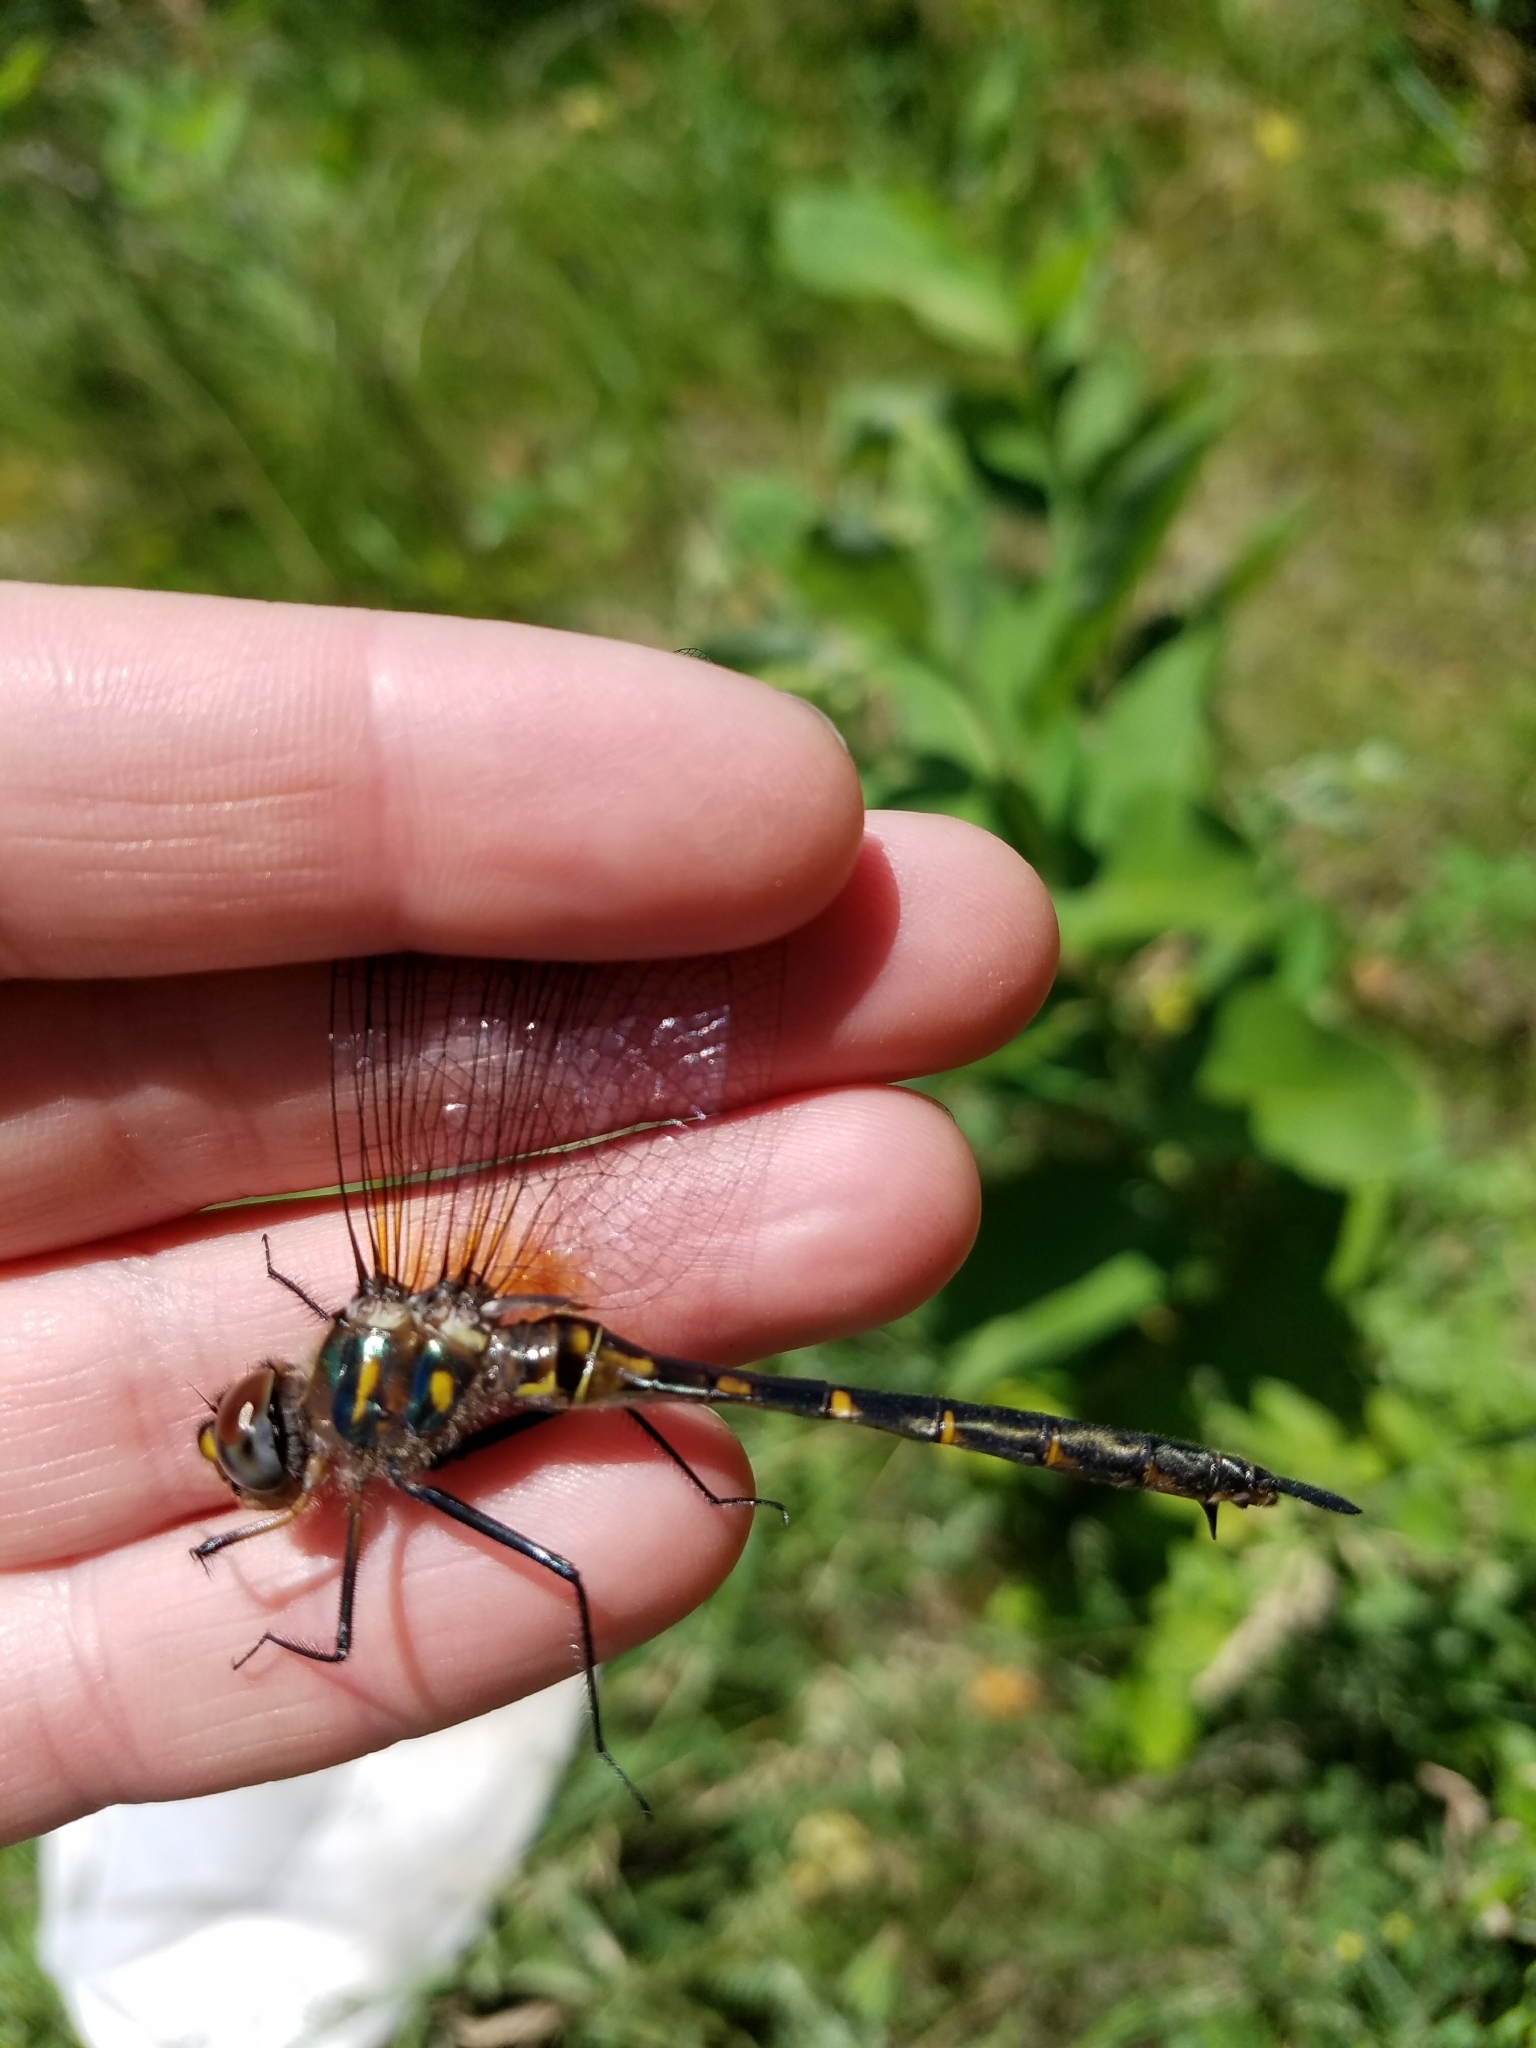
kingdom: Animalia
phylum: Arthropoda
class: Insecta
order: Odonata
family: Corduliidae
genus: Somatochlora
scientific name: Somatochlora williamsoni
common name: Williamson's emerald
